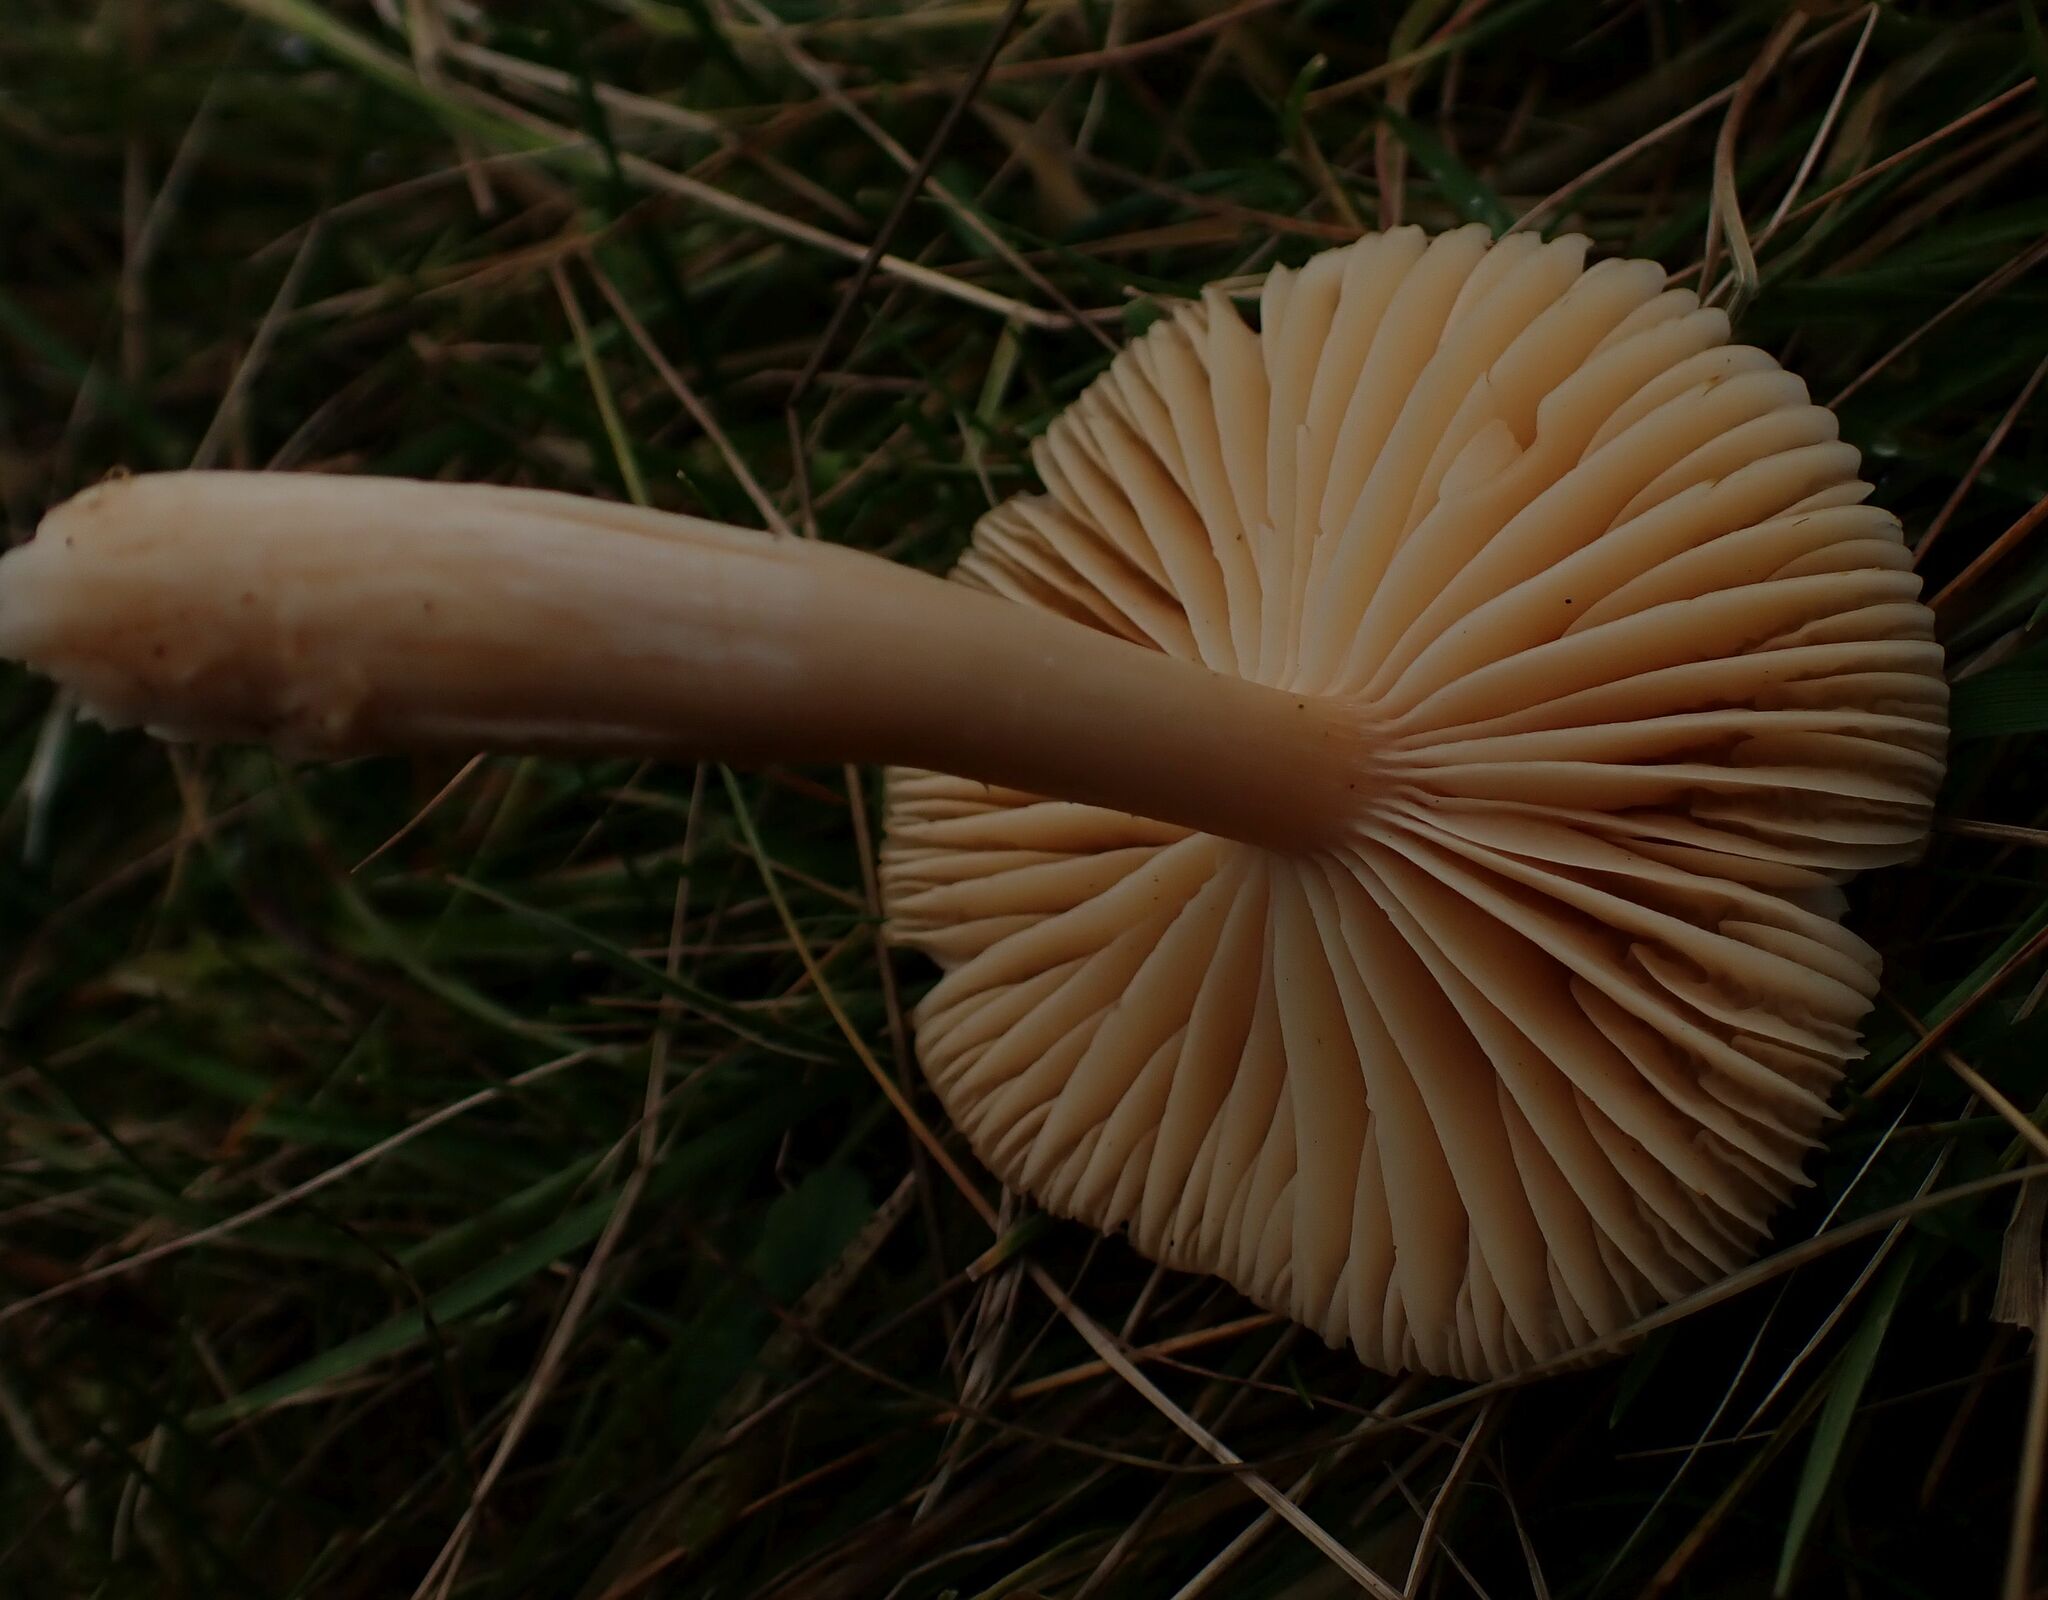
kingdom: Fungi
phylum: Basidiomycota
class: Agaricomycetes
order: Agaricales
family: Hygrophoraceae
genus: Cuphophyllus
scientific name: Cuphophyllus pratensis
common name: Meadow waxcap
